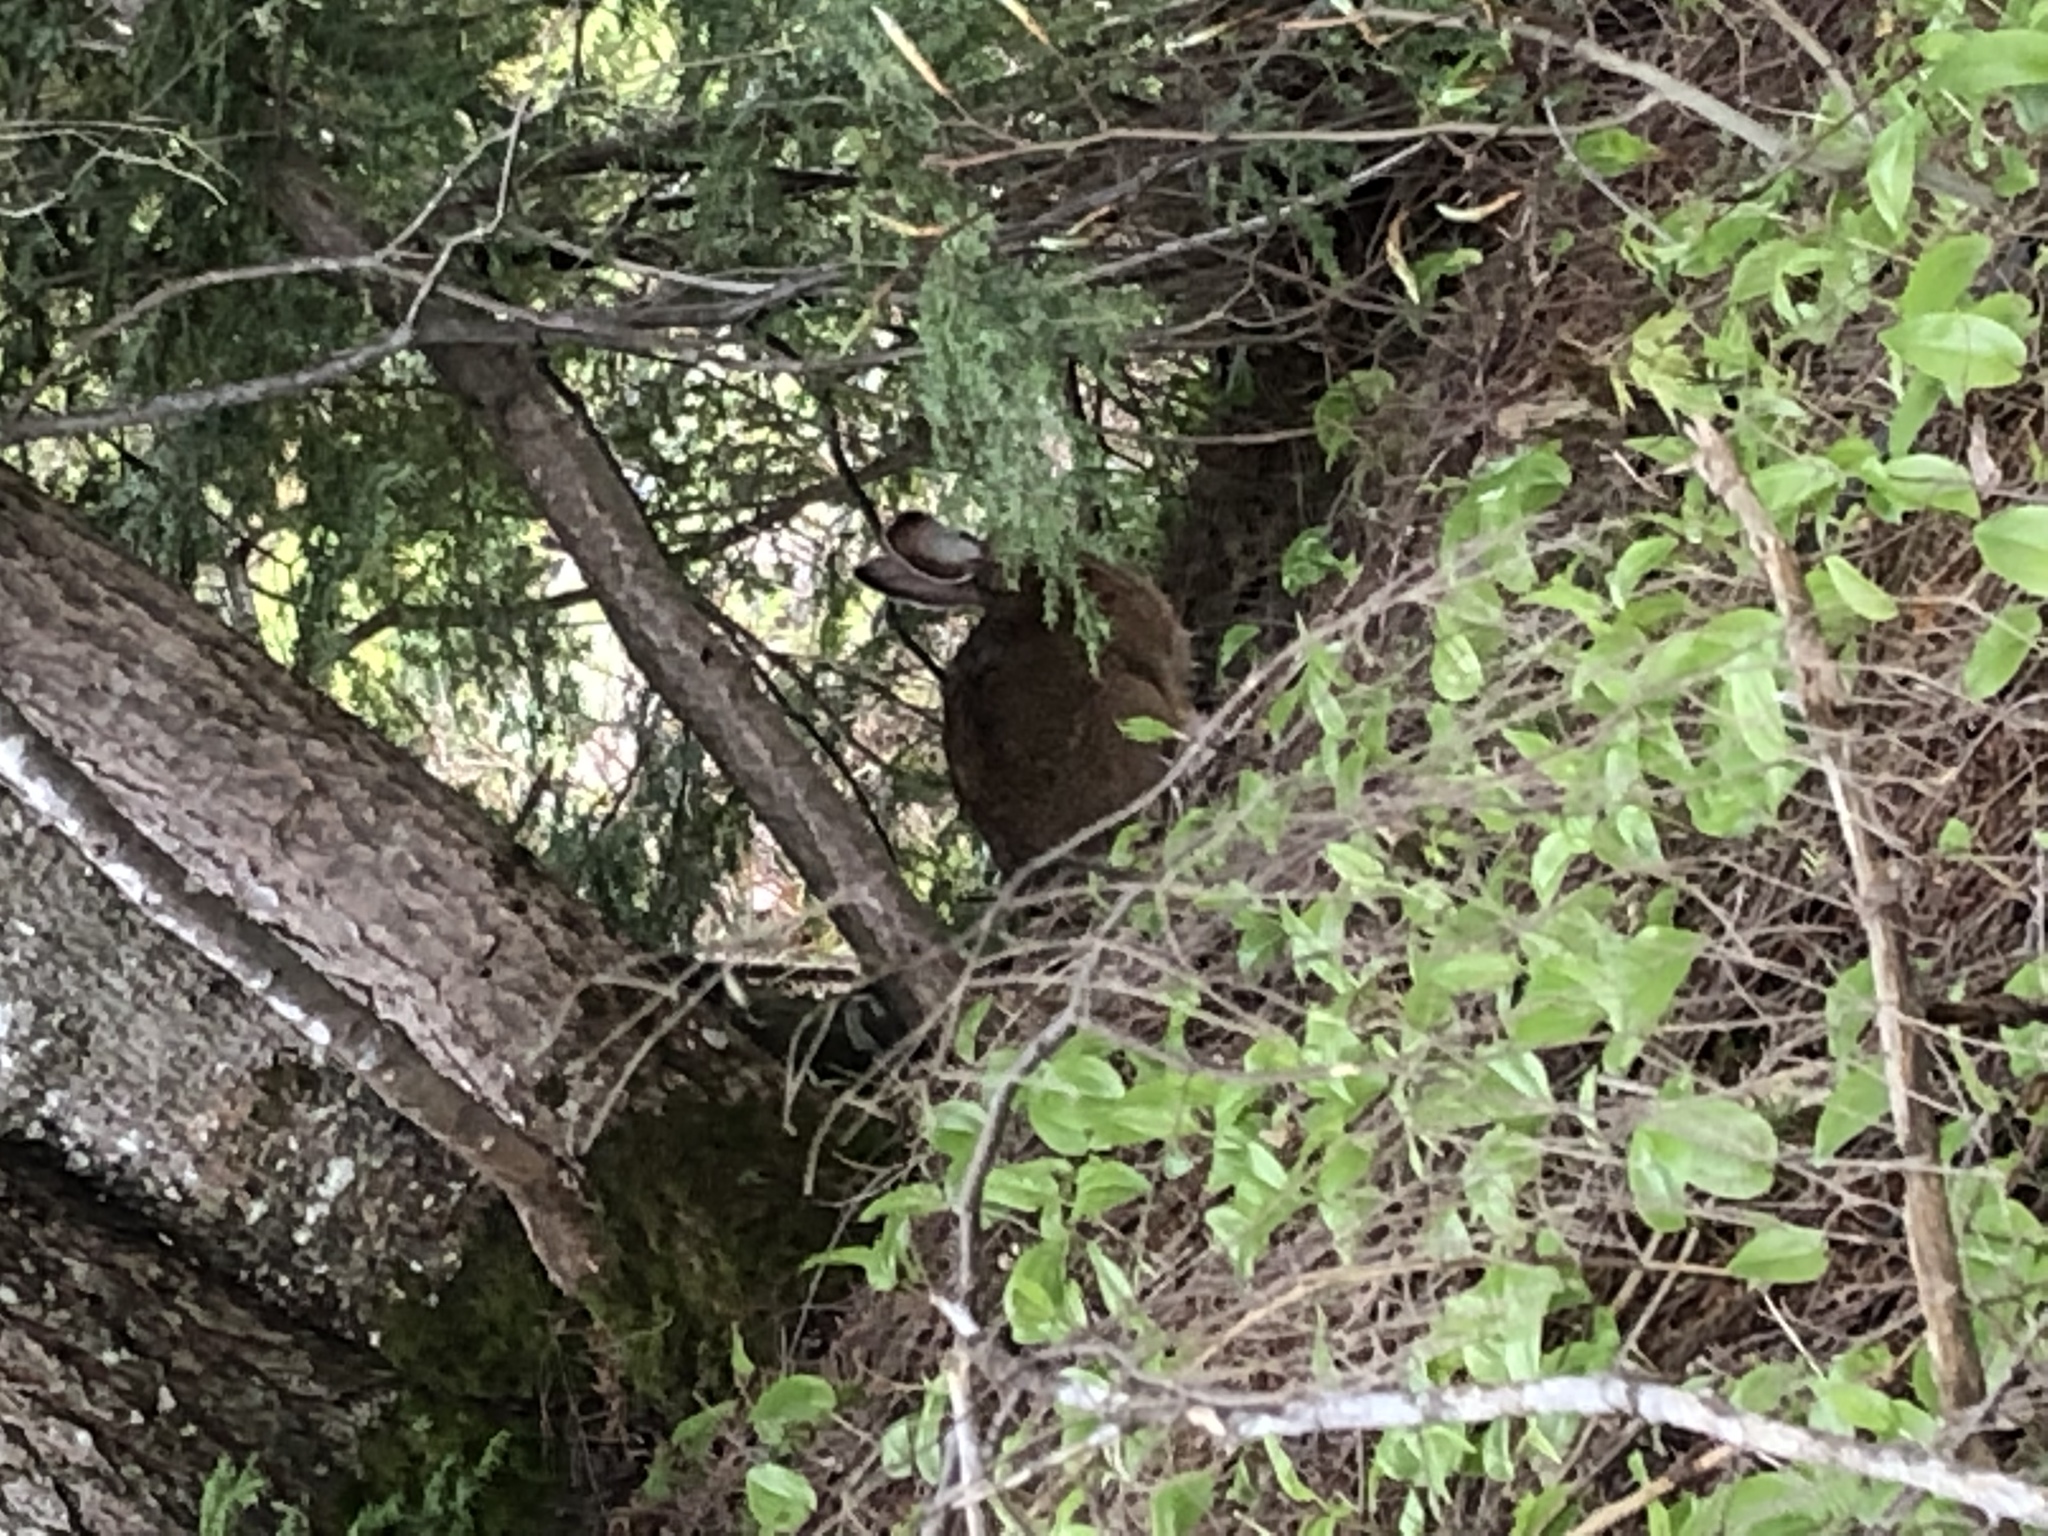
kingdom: Animalia
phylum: Chordata
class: Mammalia
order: Lagomorpha
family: Leporidae
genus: Lepus
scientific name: Lepus americanus
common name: Snowshoe hare
